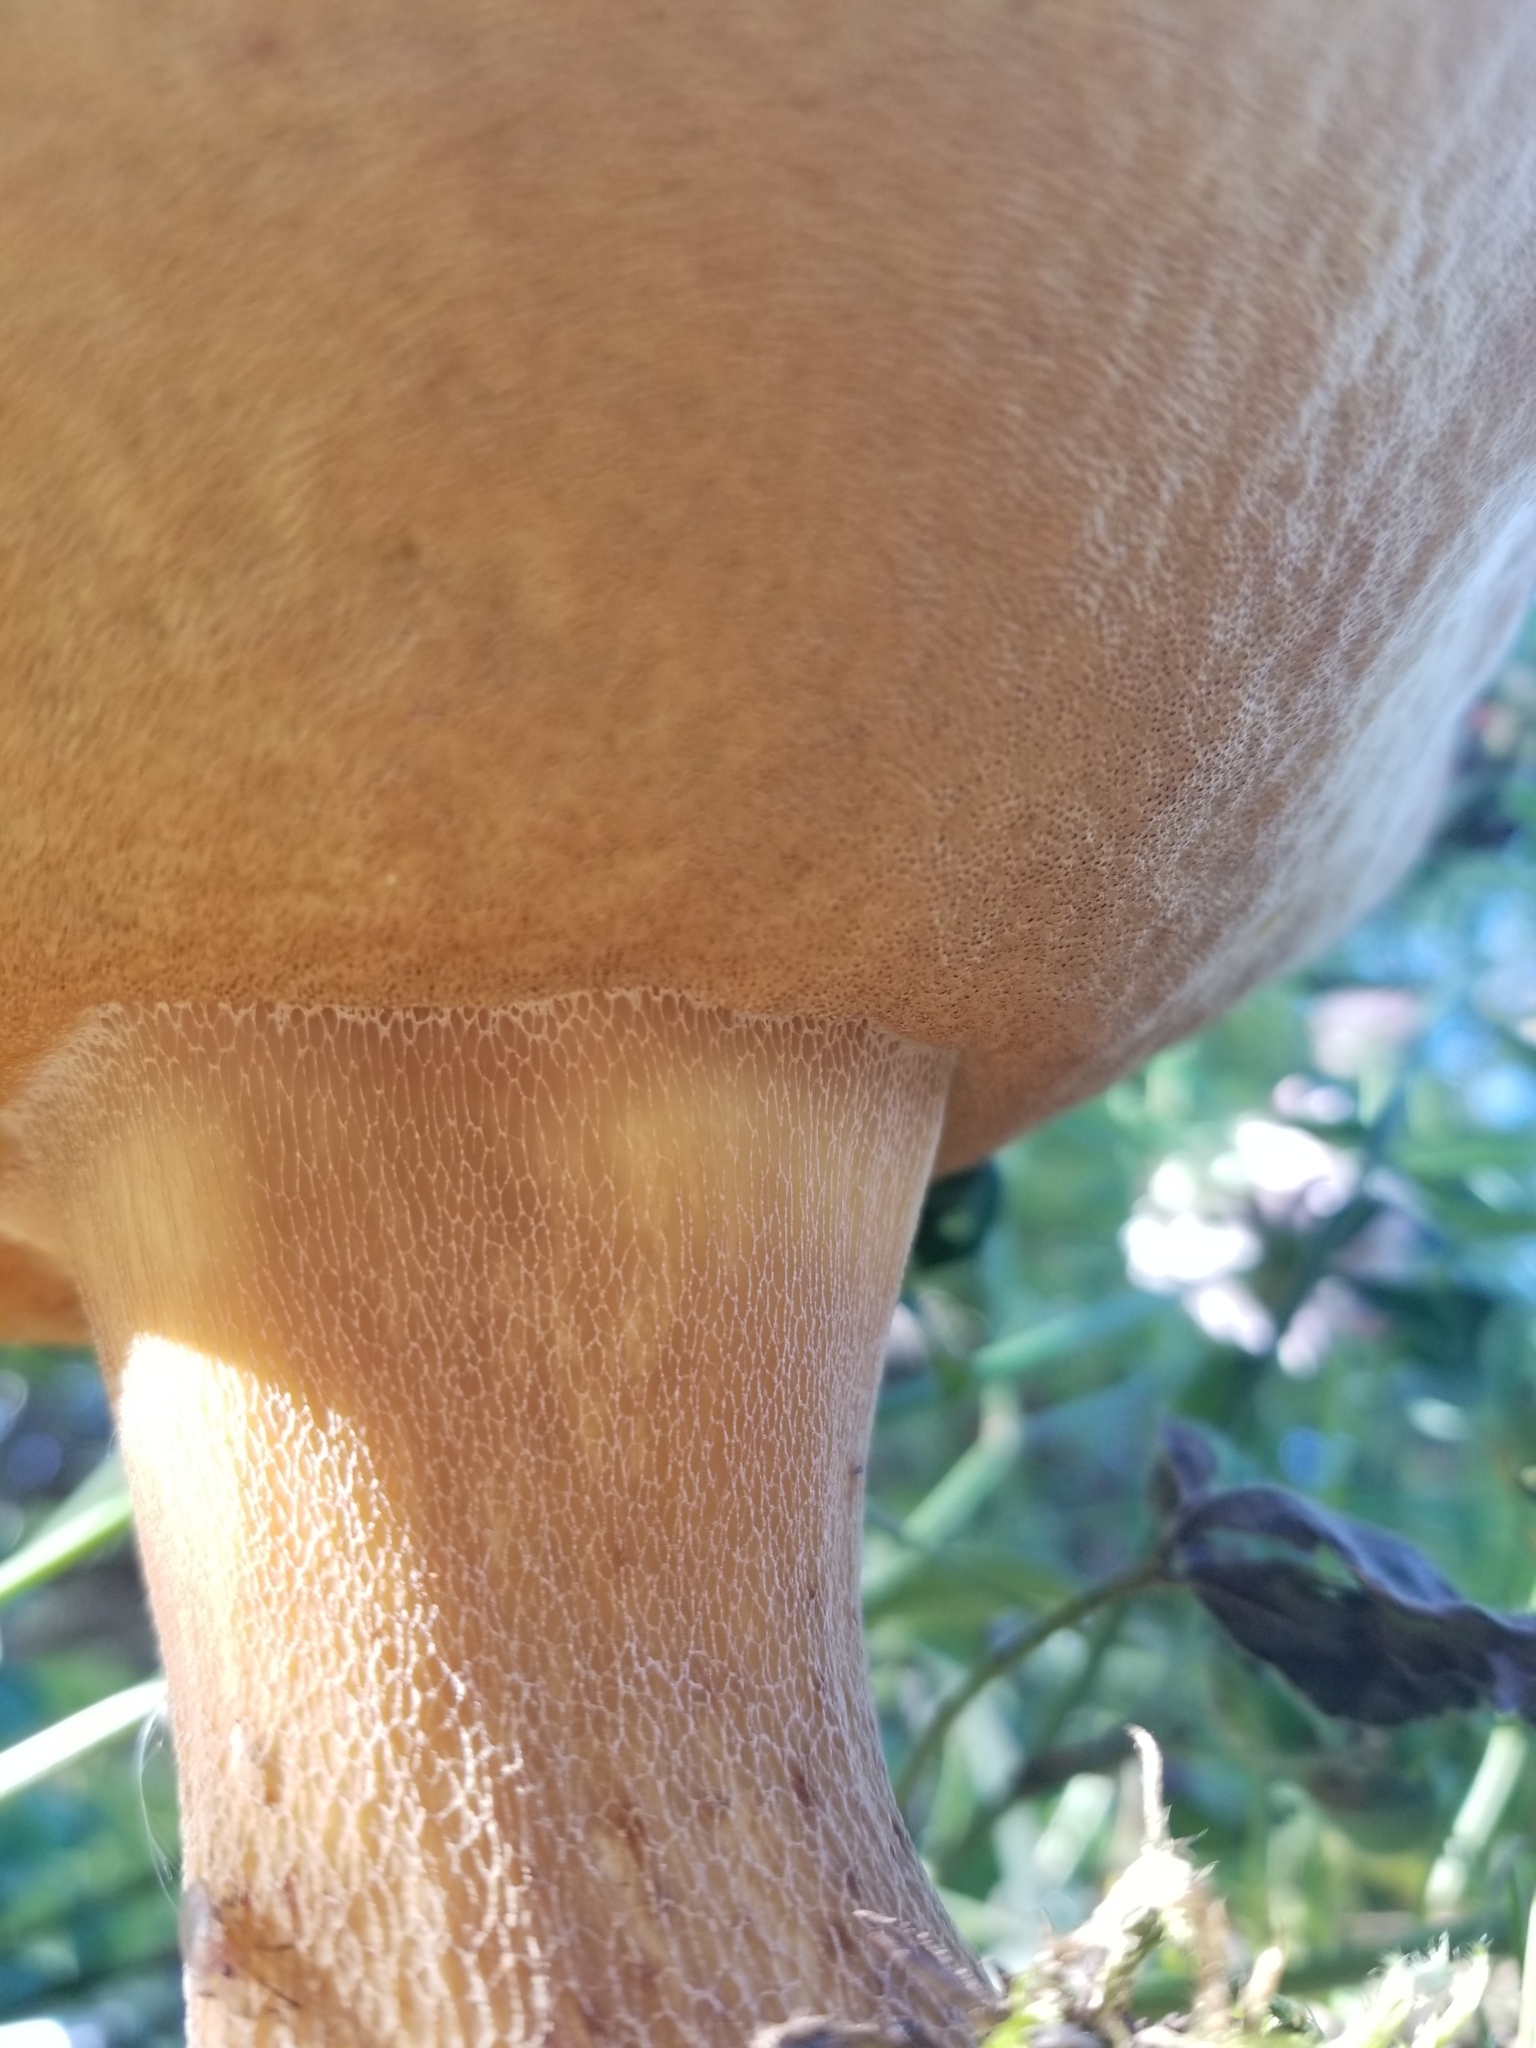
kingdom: Fungi
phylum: Basidiomycota
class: Agaricomycetes
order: Boletales
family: Boletaceae
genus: Boletus
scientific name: Boletus edulis
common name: Cep
